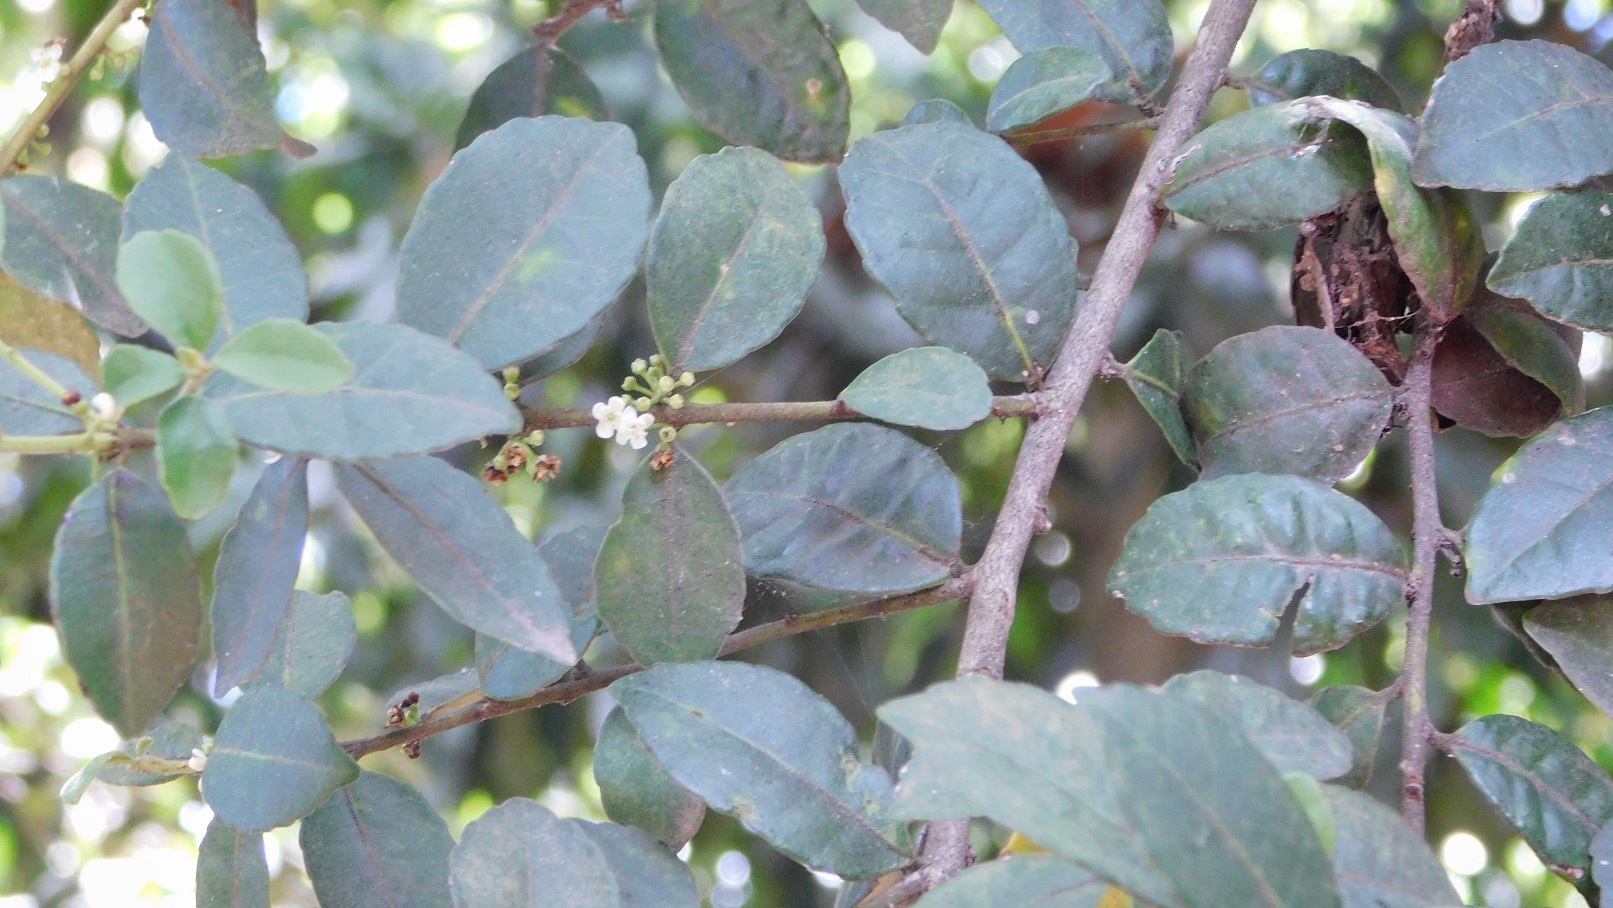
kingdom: Plantae
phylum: Tracheophyta
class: Magnoliopsida
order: Aquifoliales
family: Aquifoliaceae
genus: Ilex
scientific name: Ilex vomitoria
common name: Yaupon holly
